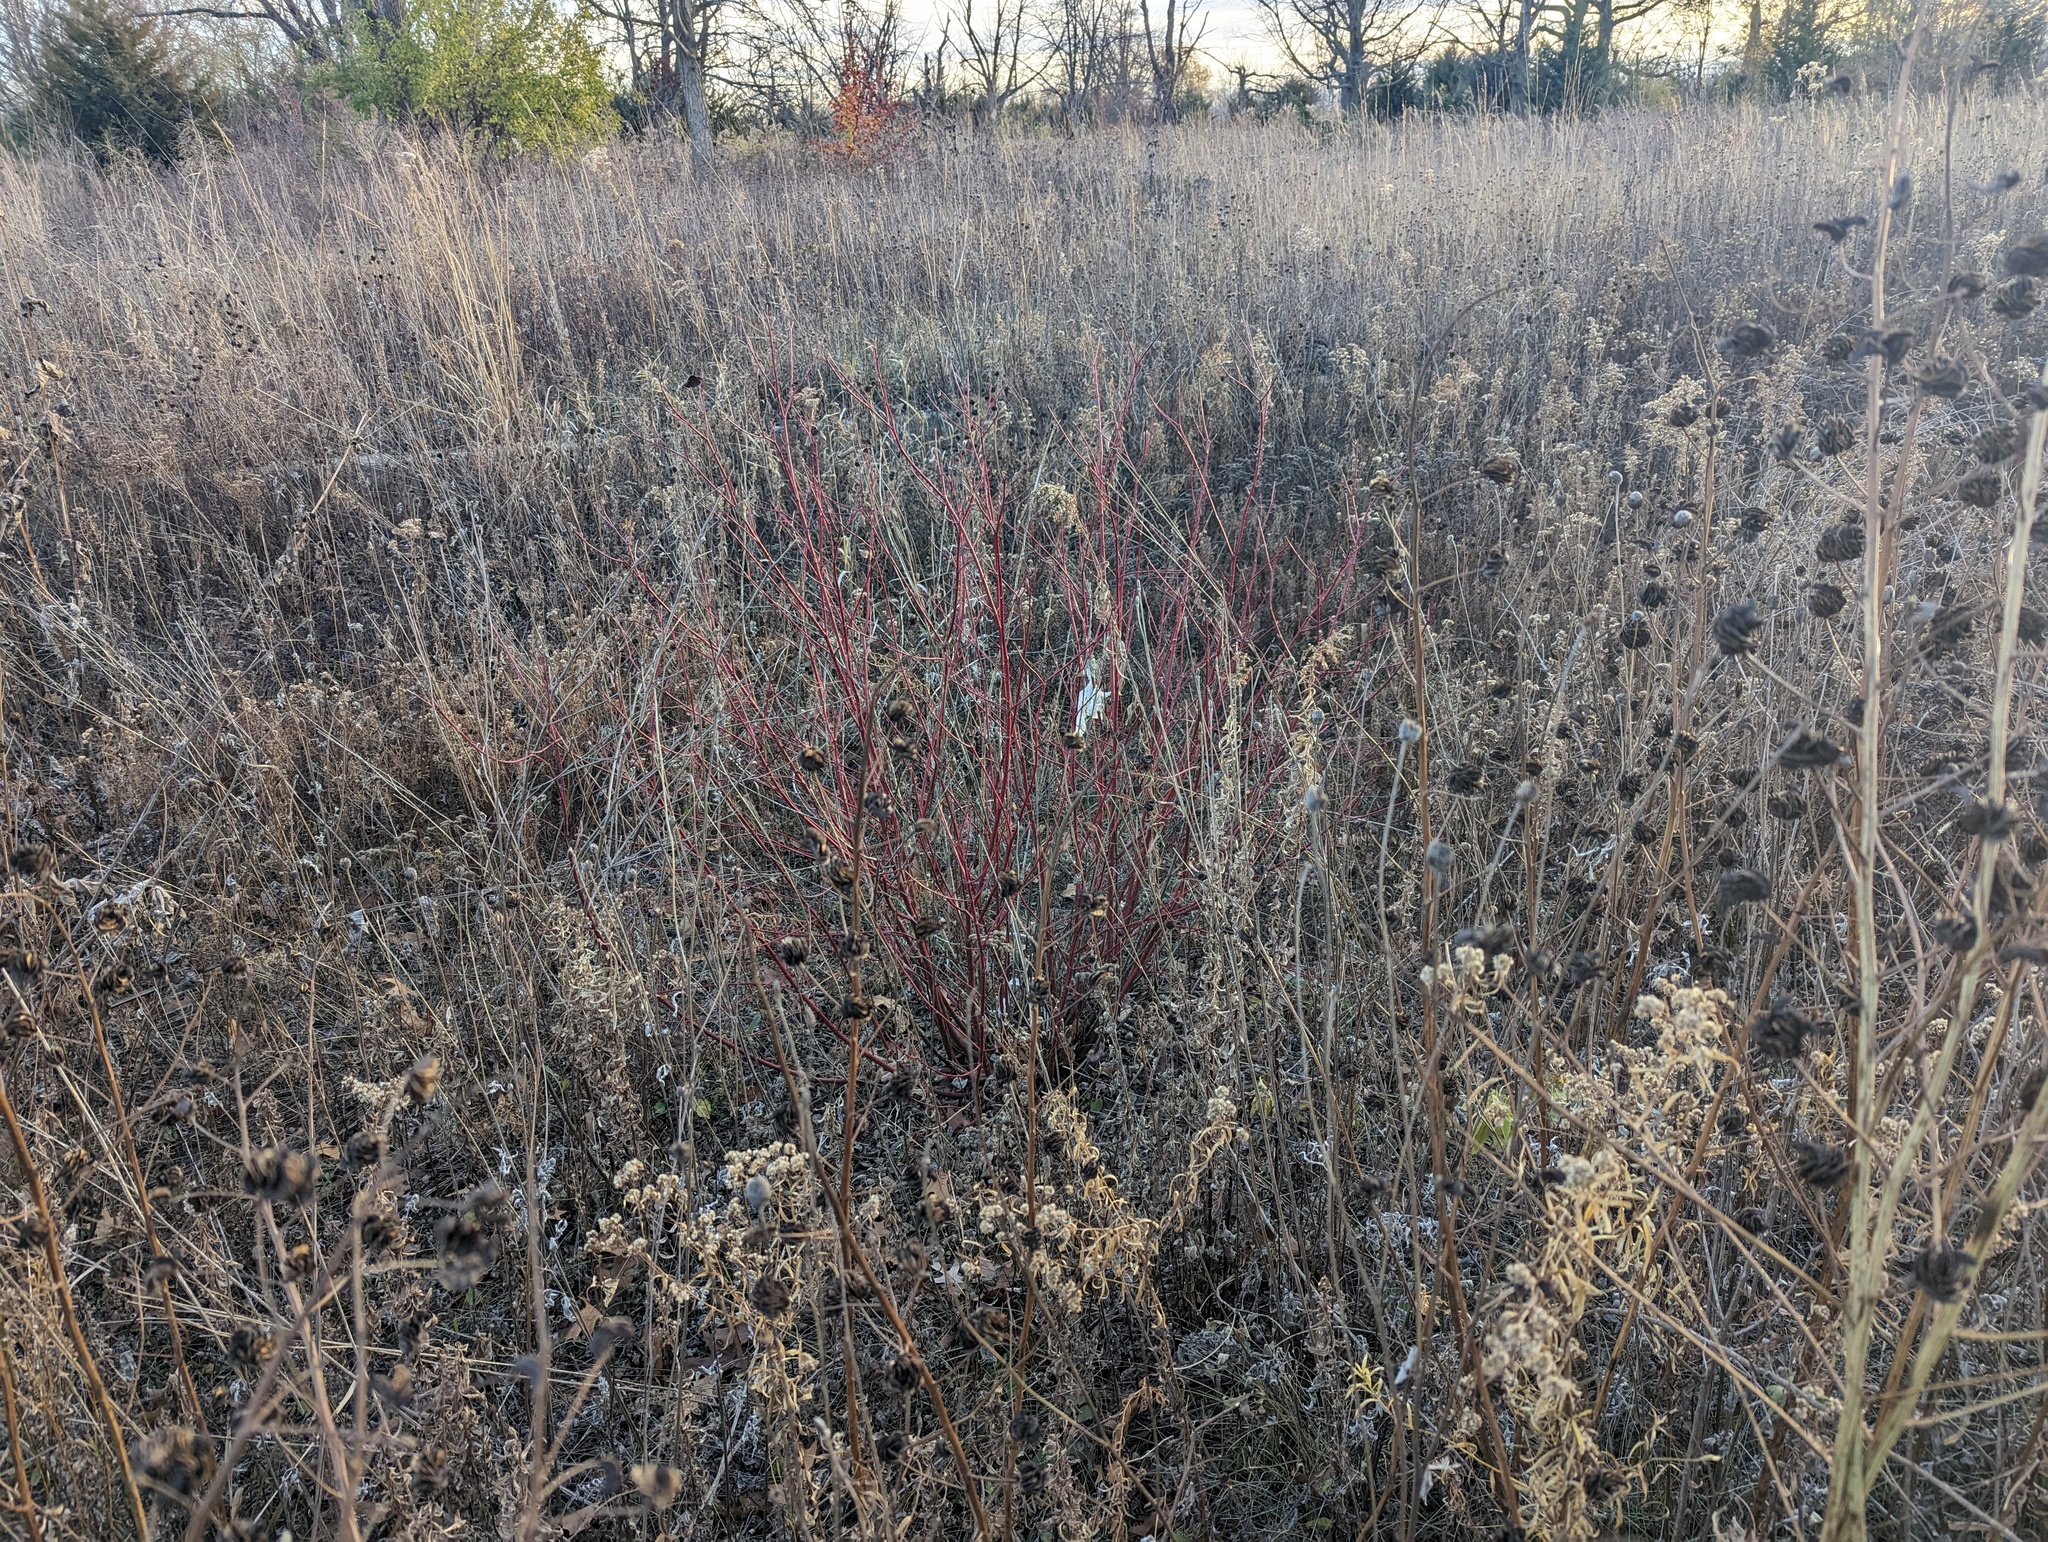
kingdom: Plantae
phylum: Tracheophyta
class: Magnoliopsida
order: Cornales
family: Cornaceae
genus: Cornus
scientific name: Cornus sericea
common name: Red-osier dogwood
